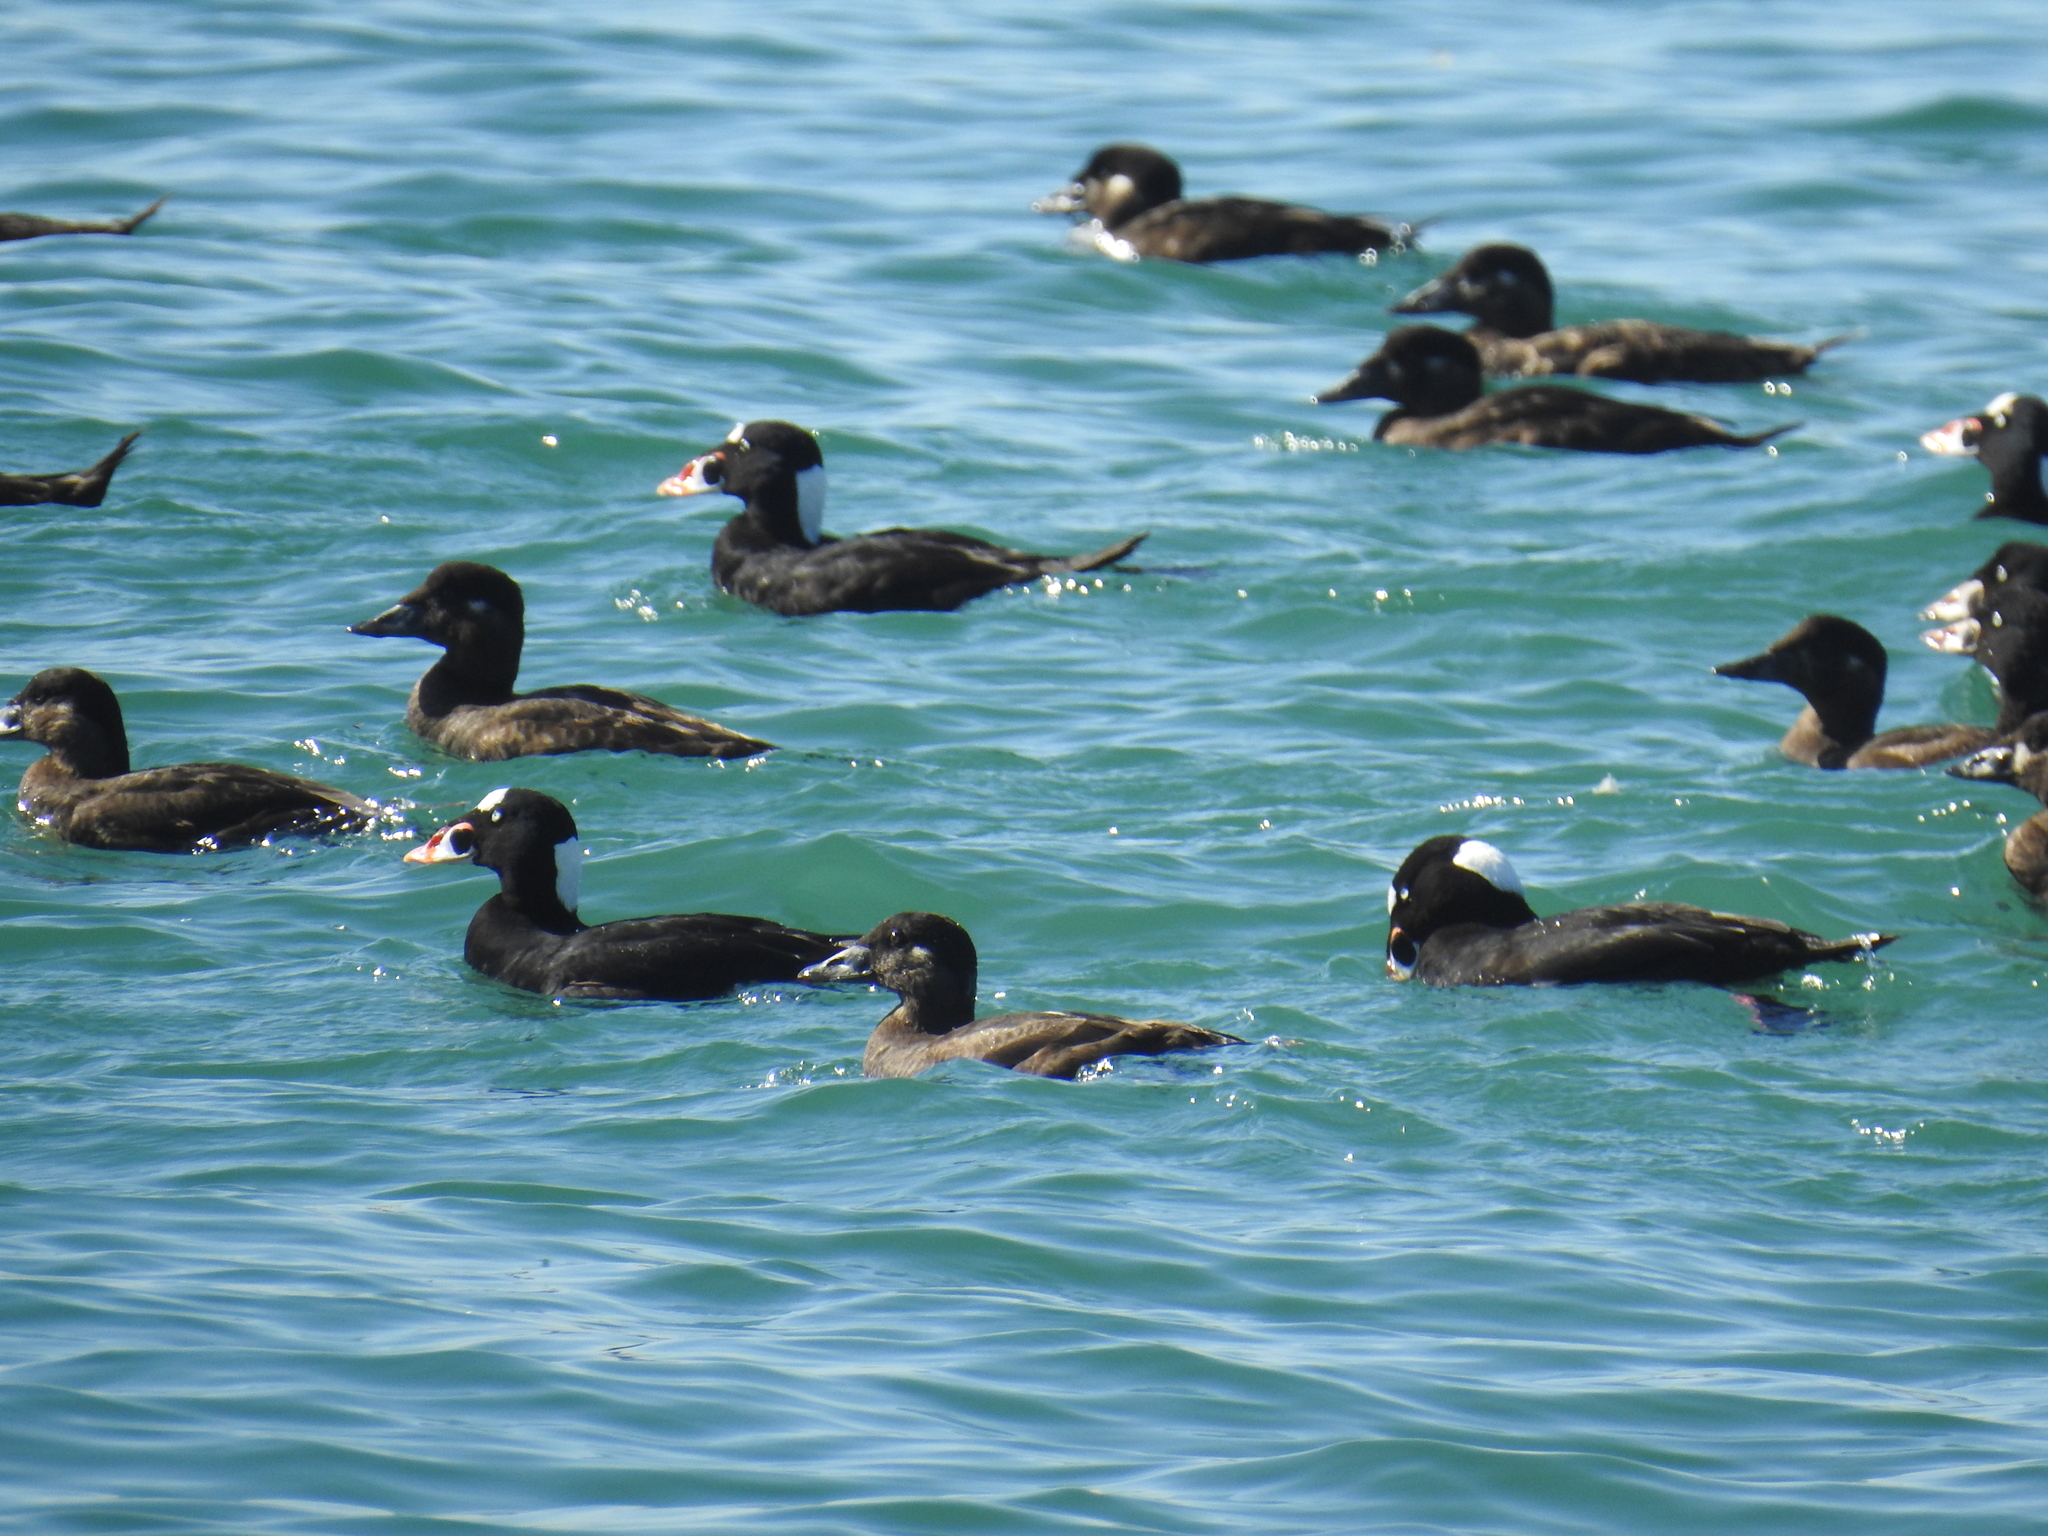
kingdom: Animalia
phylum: Chordata
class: Aves
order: Anseriformes
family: Anatidae
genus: Melanitta
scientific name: Melanitta perspicillata
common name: Surf scoter
